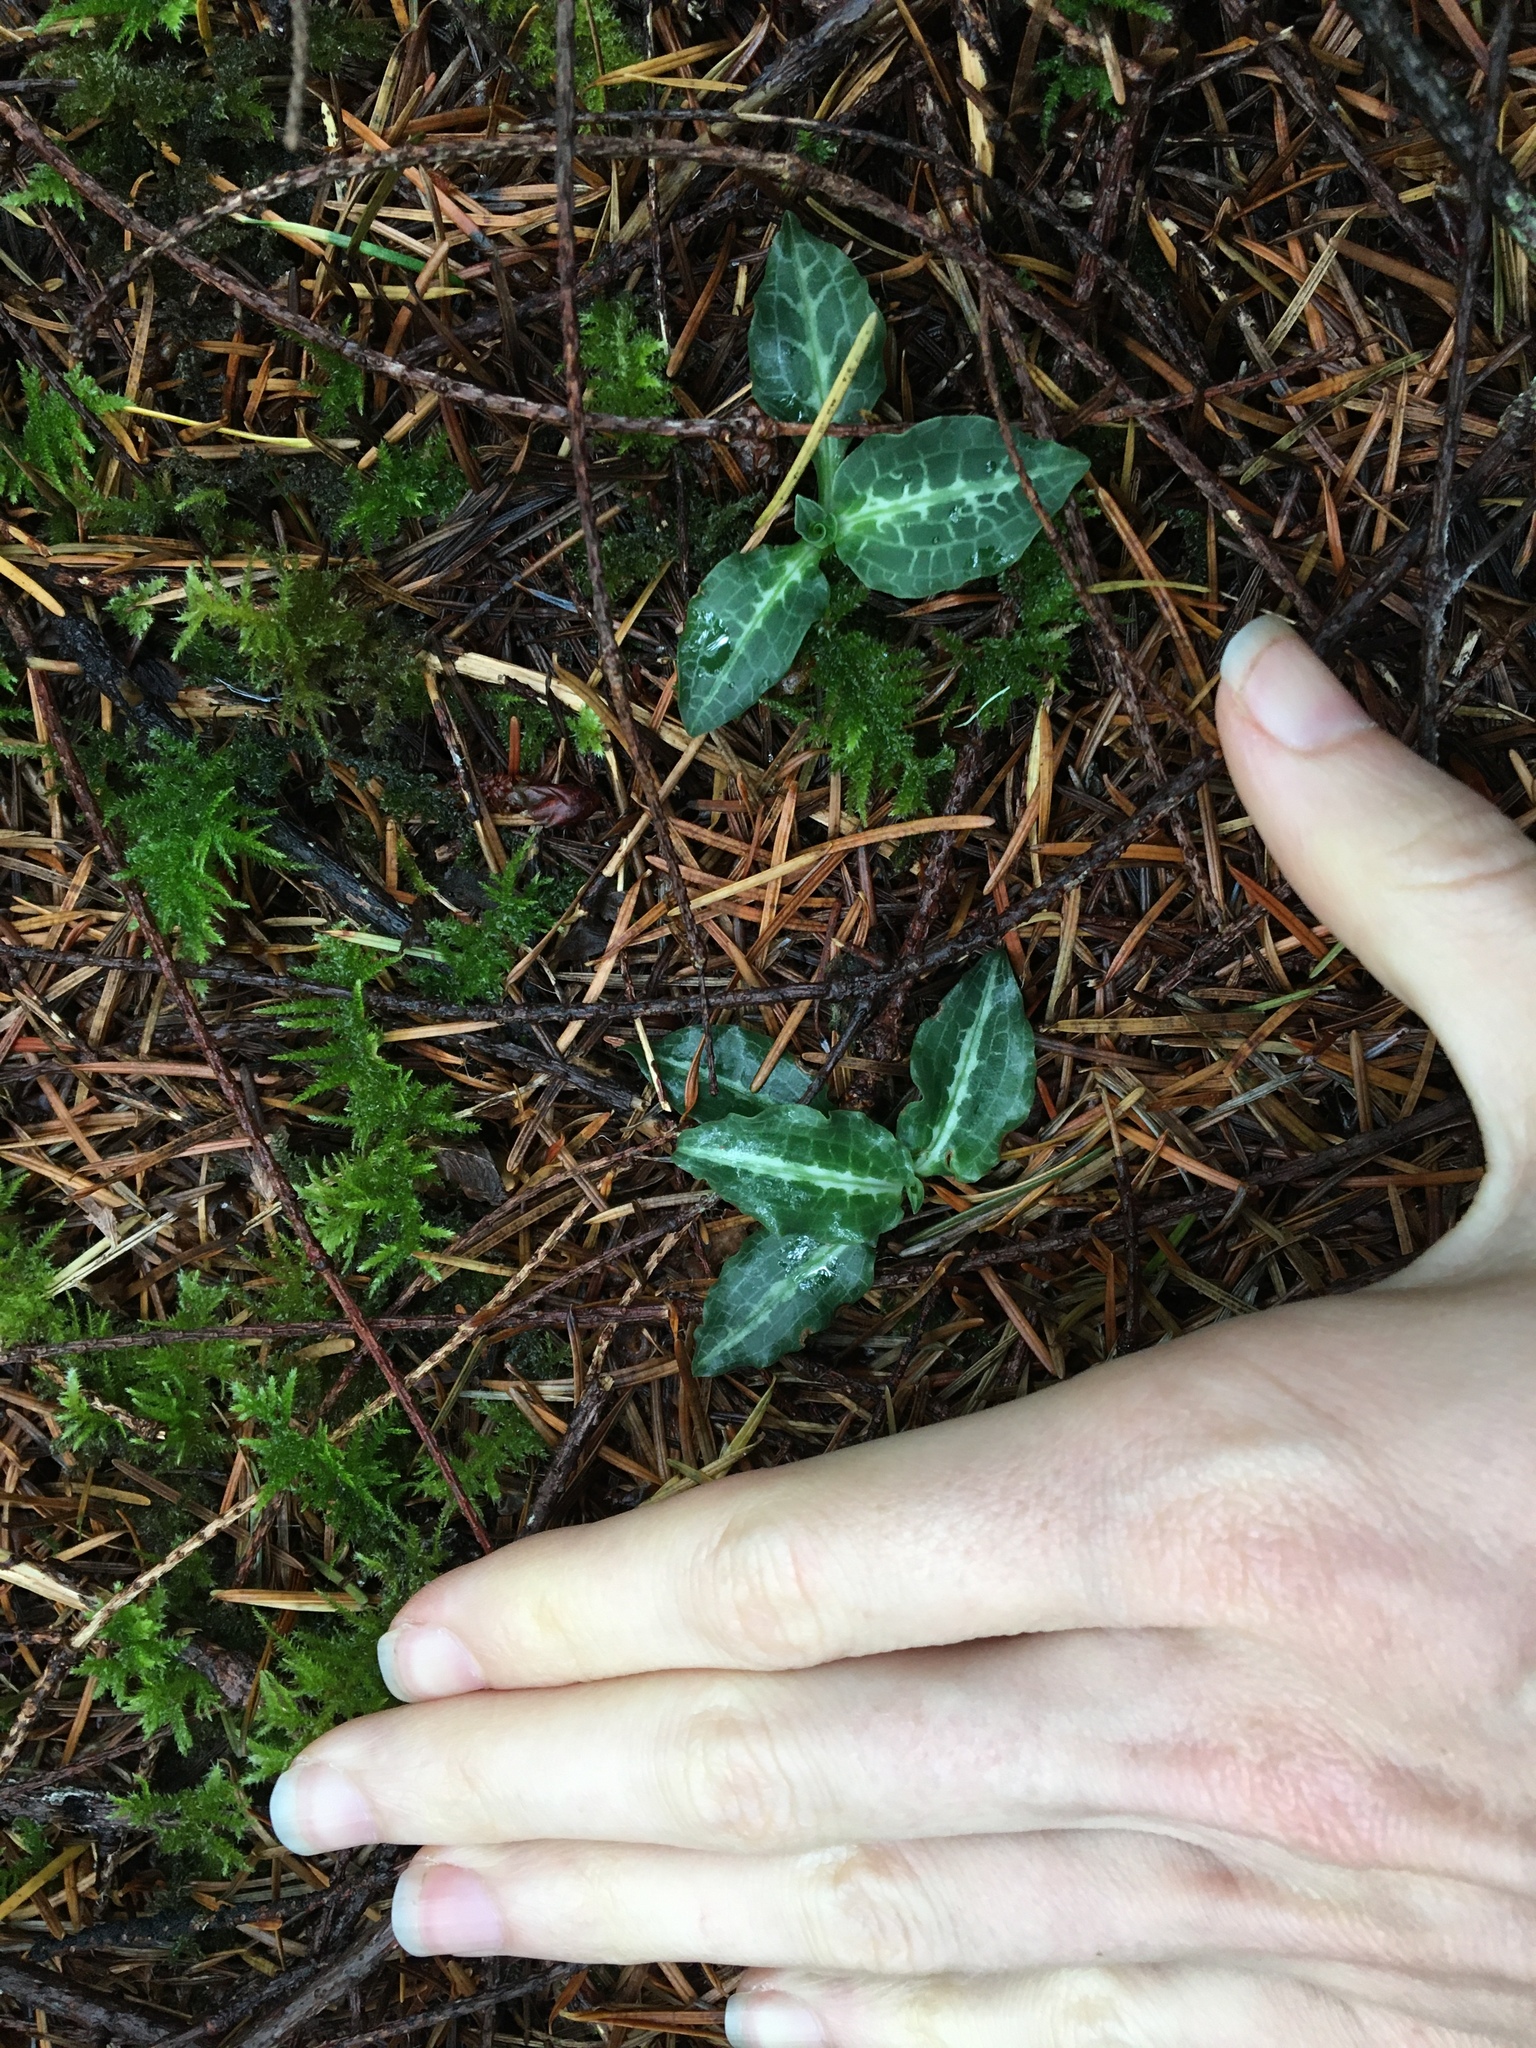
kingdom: Plantae
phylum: Tracheophyta
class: Liliopsida
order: Asparagales
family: Orchidaceae
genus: Goodyera
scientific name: Goodyera oblongifolia
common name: Giant rattlesnake-plantain
